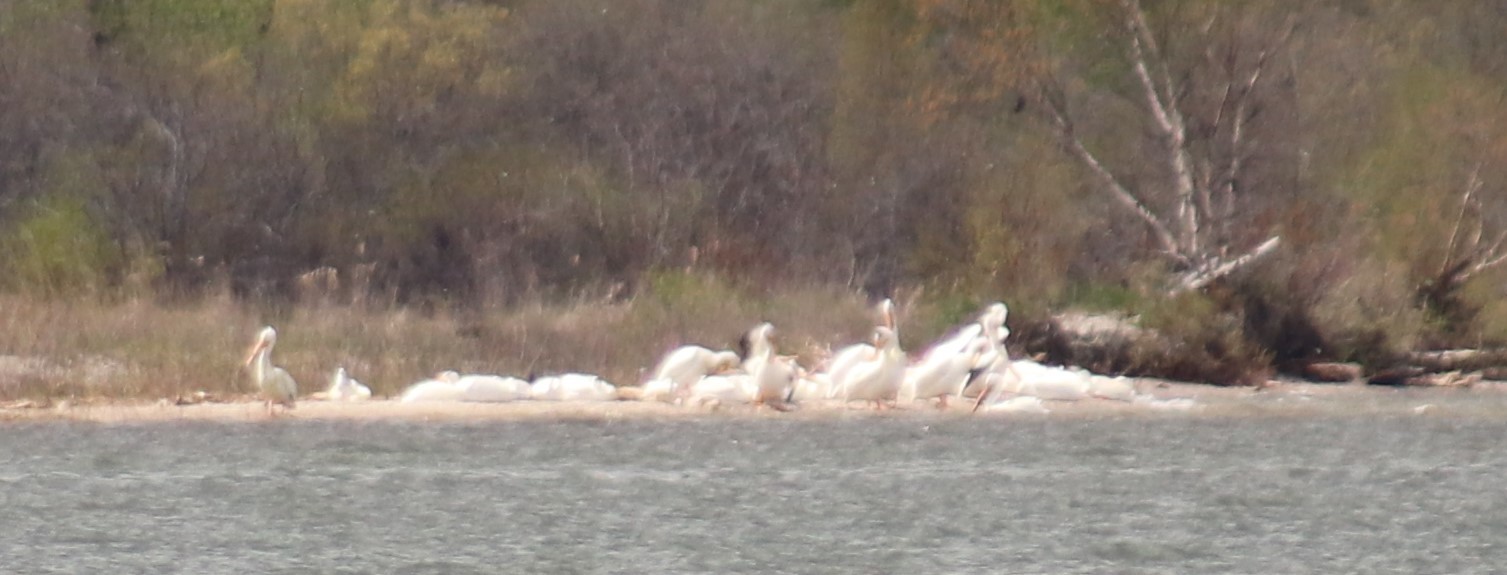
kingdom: Animalia
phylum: Chordata
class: Aves
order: Pelecaniformes
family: Pelecanidae
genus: Pelecanus
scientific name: Pelecanus erythrorhynchos
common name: American white pelican
